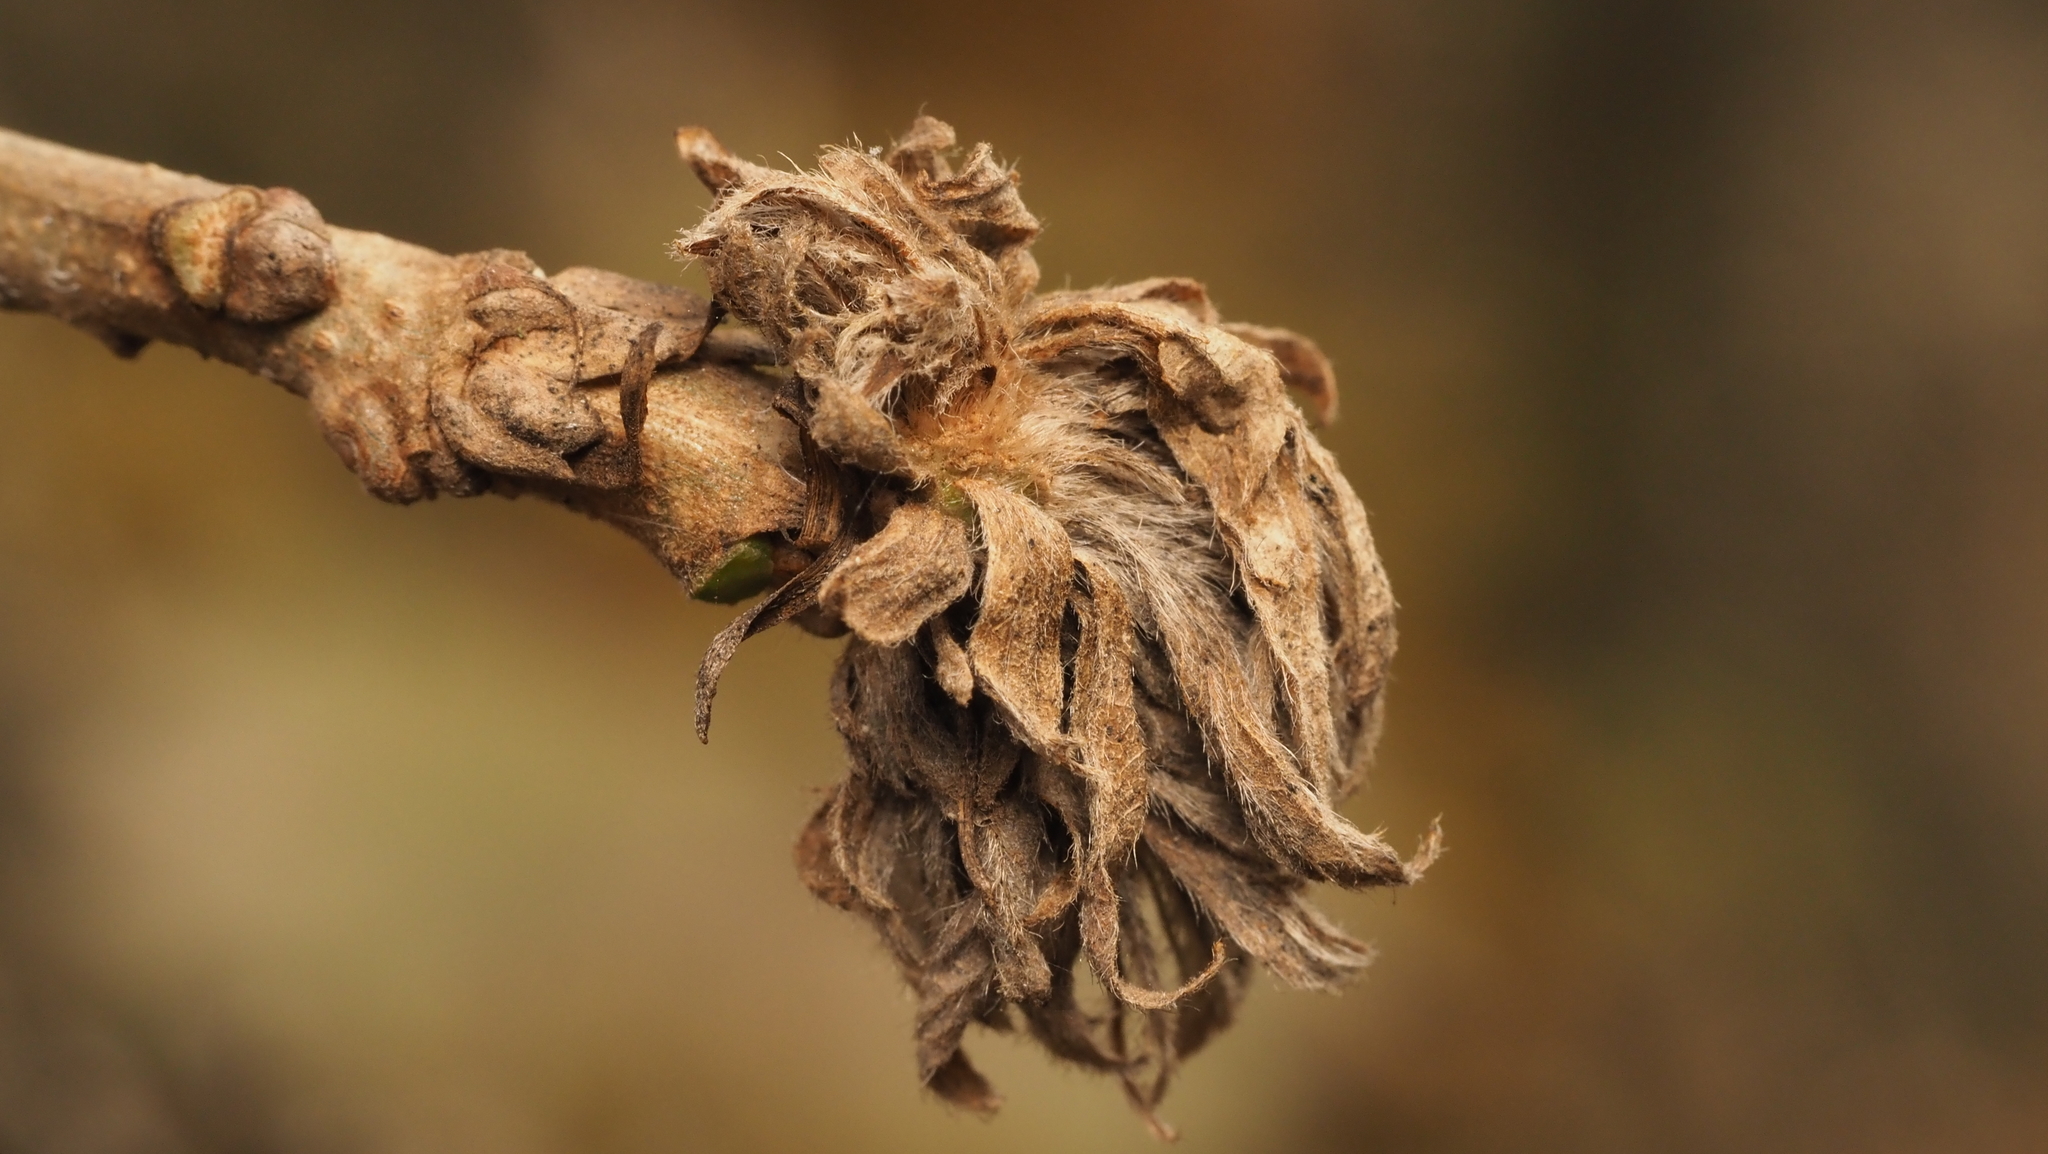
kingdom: Animalia
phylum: Arthropoda
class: Insecta
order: Hymenoptera
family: Cynipidae
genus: Andricus
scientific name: Andricus
